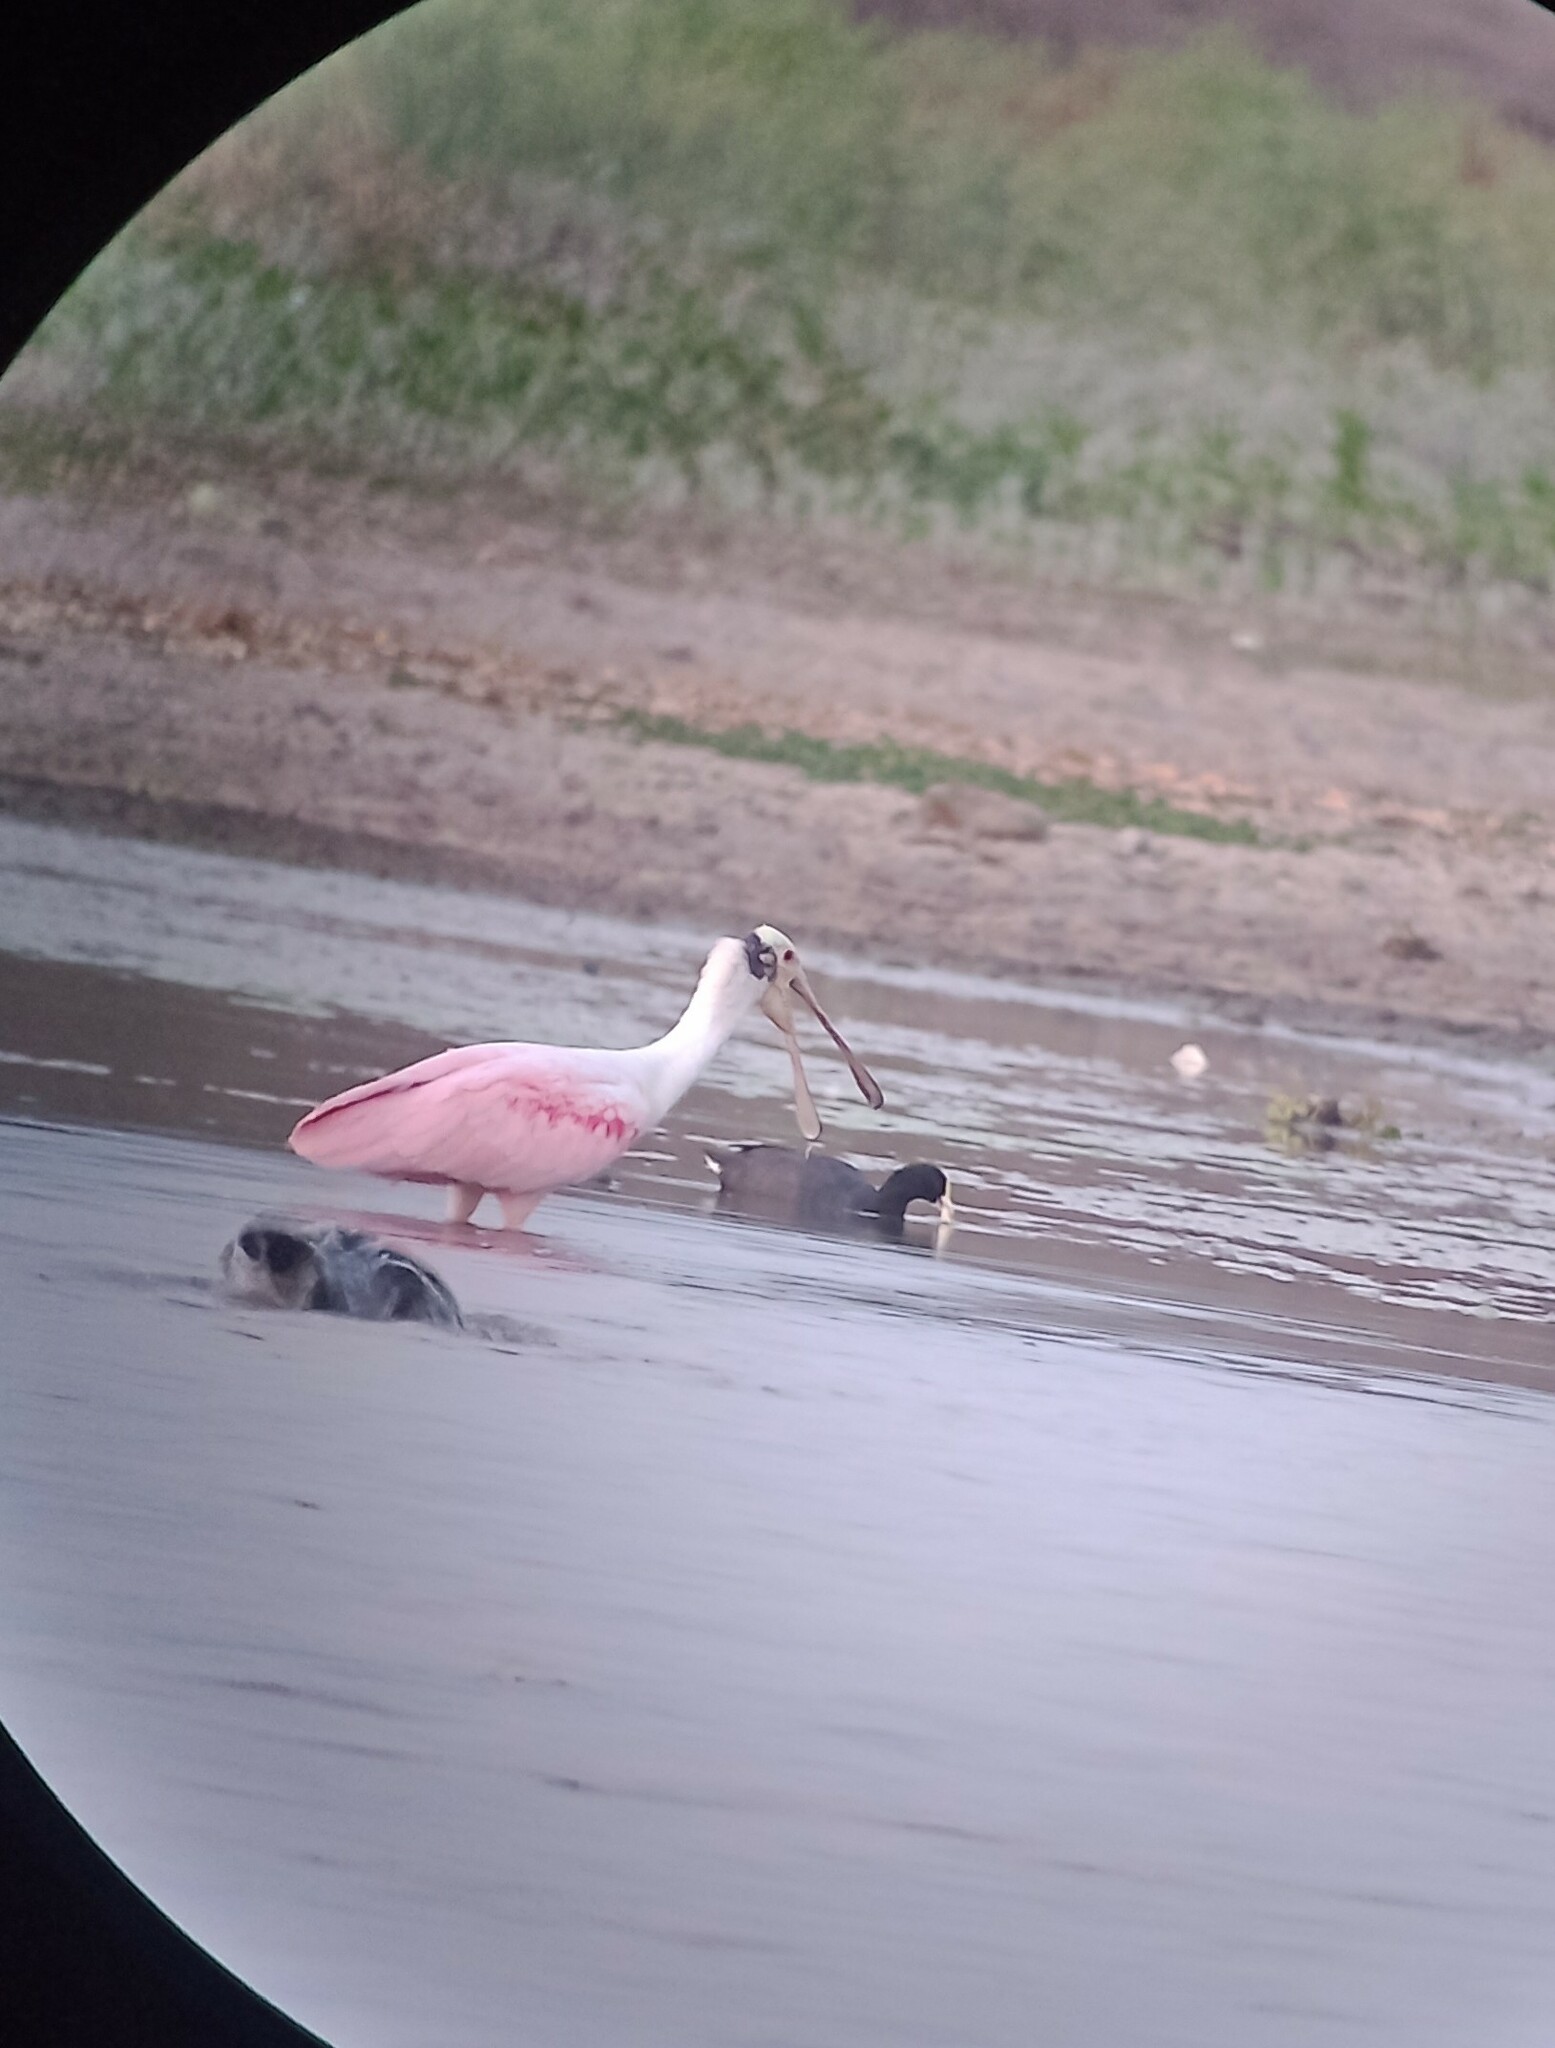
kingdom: Animalia
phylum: Chordata
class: Aves
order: Pelecaniformes
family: Threskiornithidae
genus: Platalea
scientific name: Platalea ajaja
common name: Roseate spoonbill
